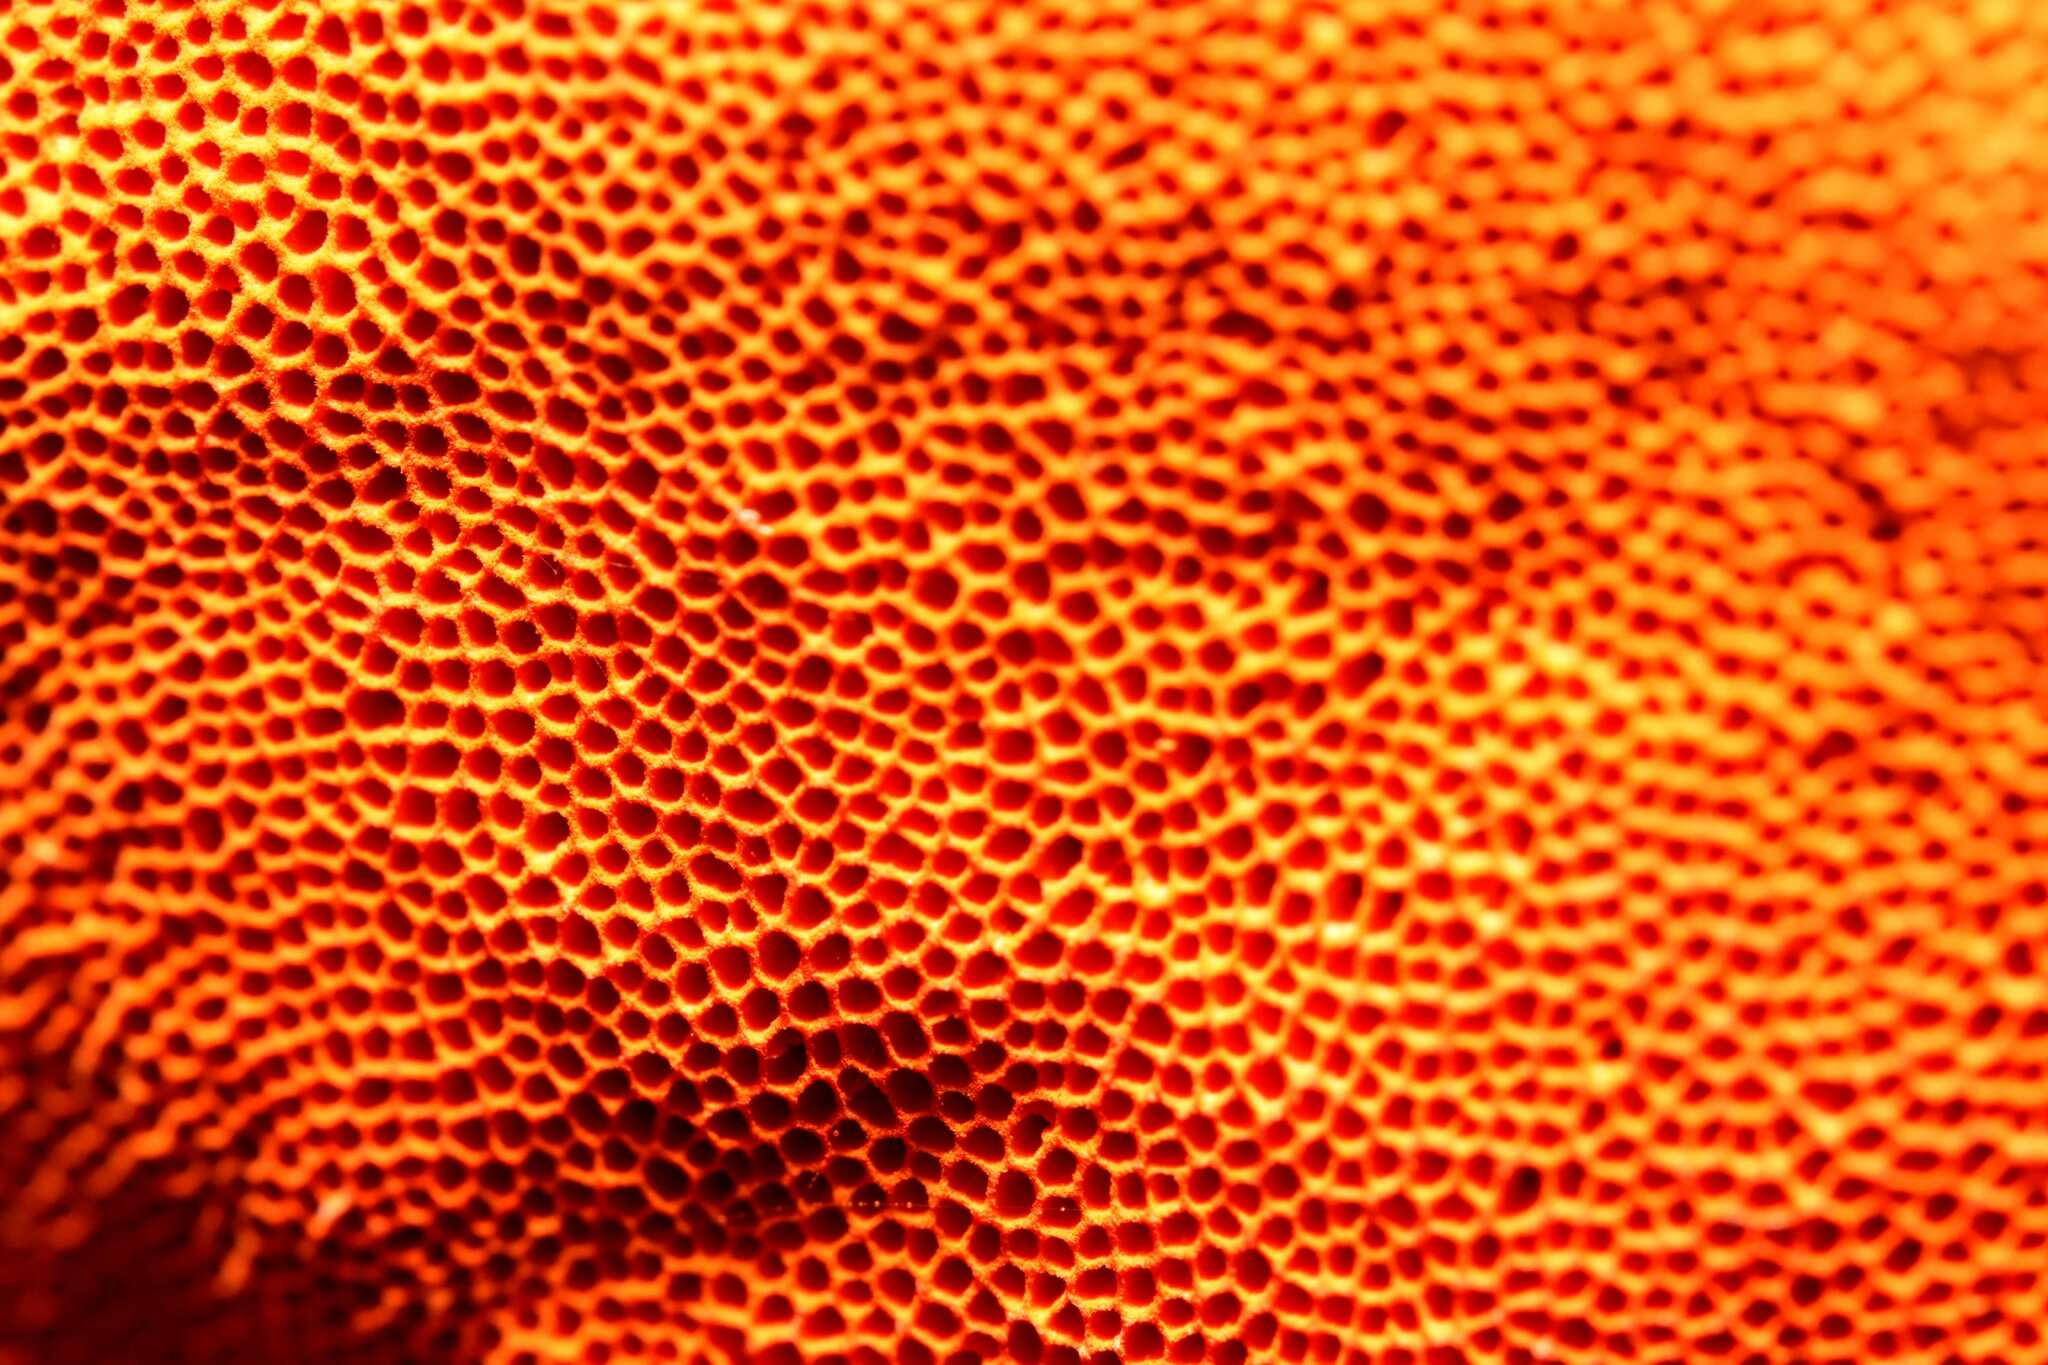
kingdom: Fungi
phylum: Basidiomycota
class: Agaricomycetes
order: Polyporales
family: Polyporaceae
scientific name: Polyporaceae
